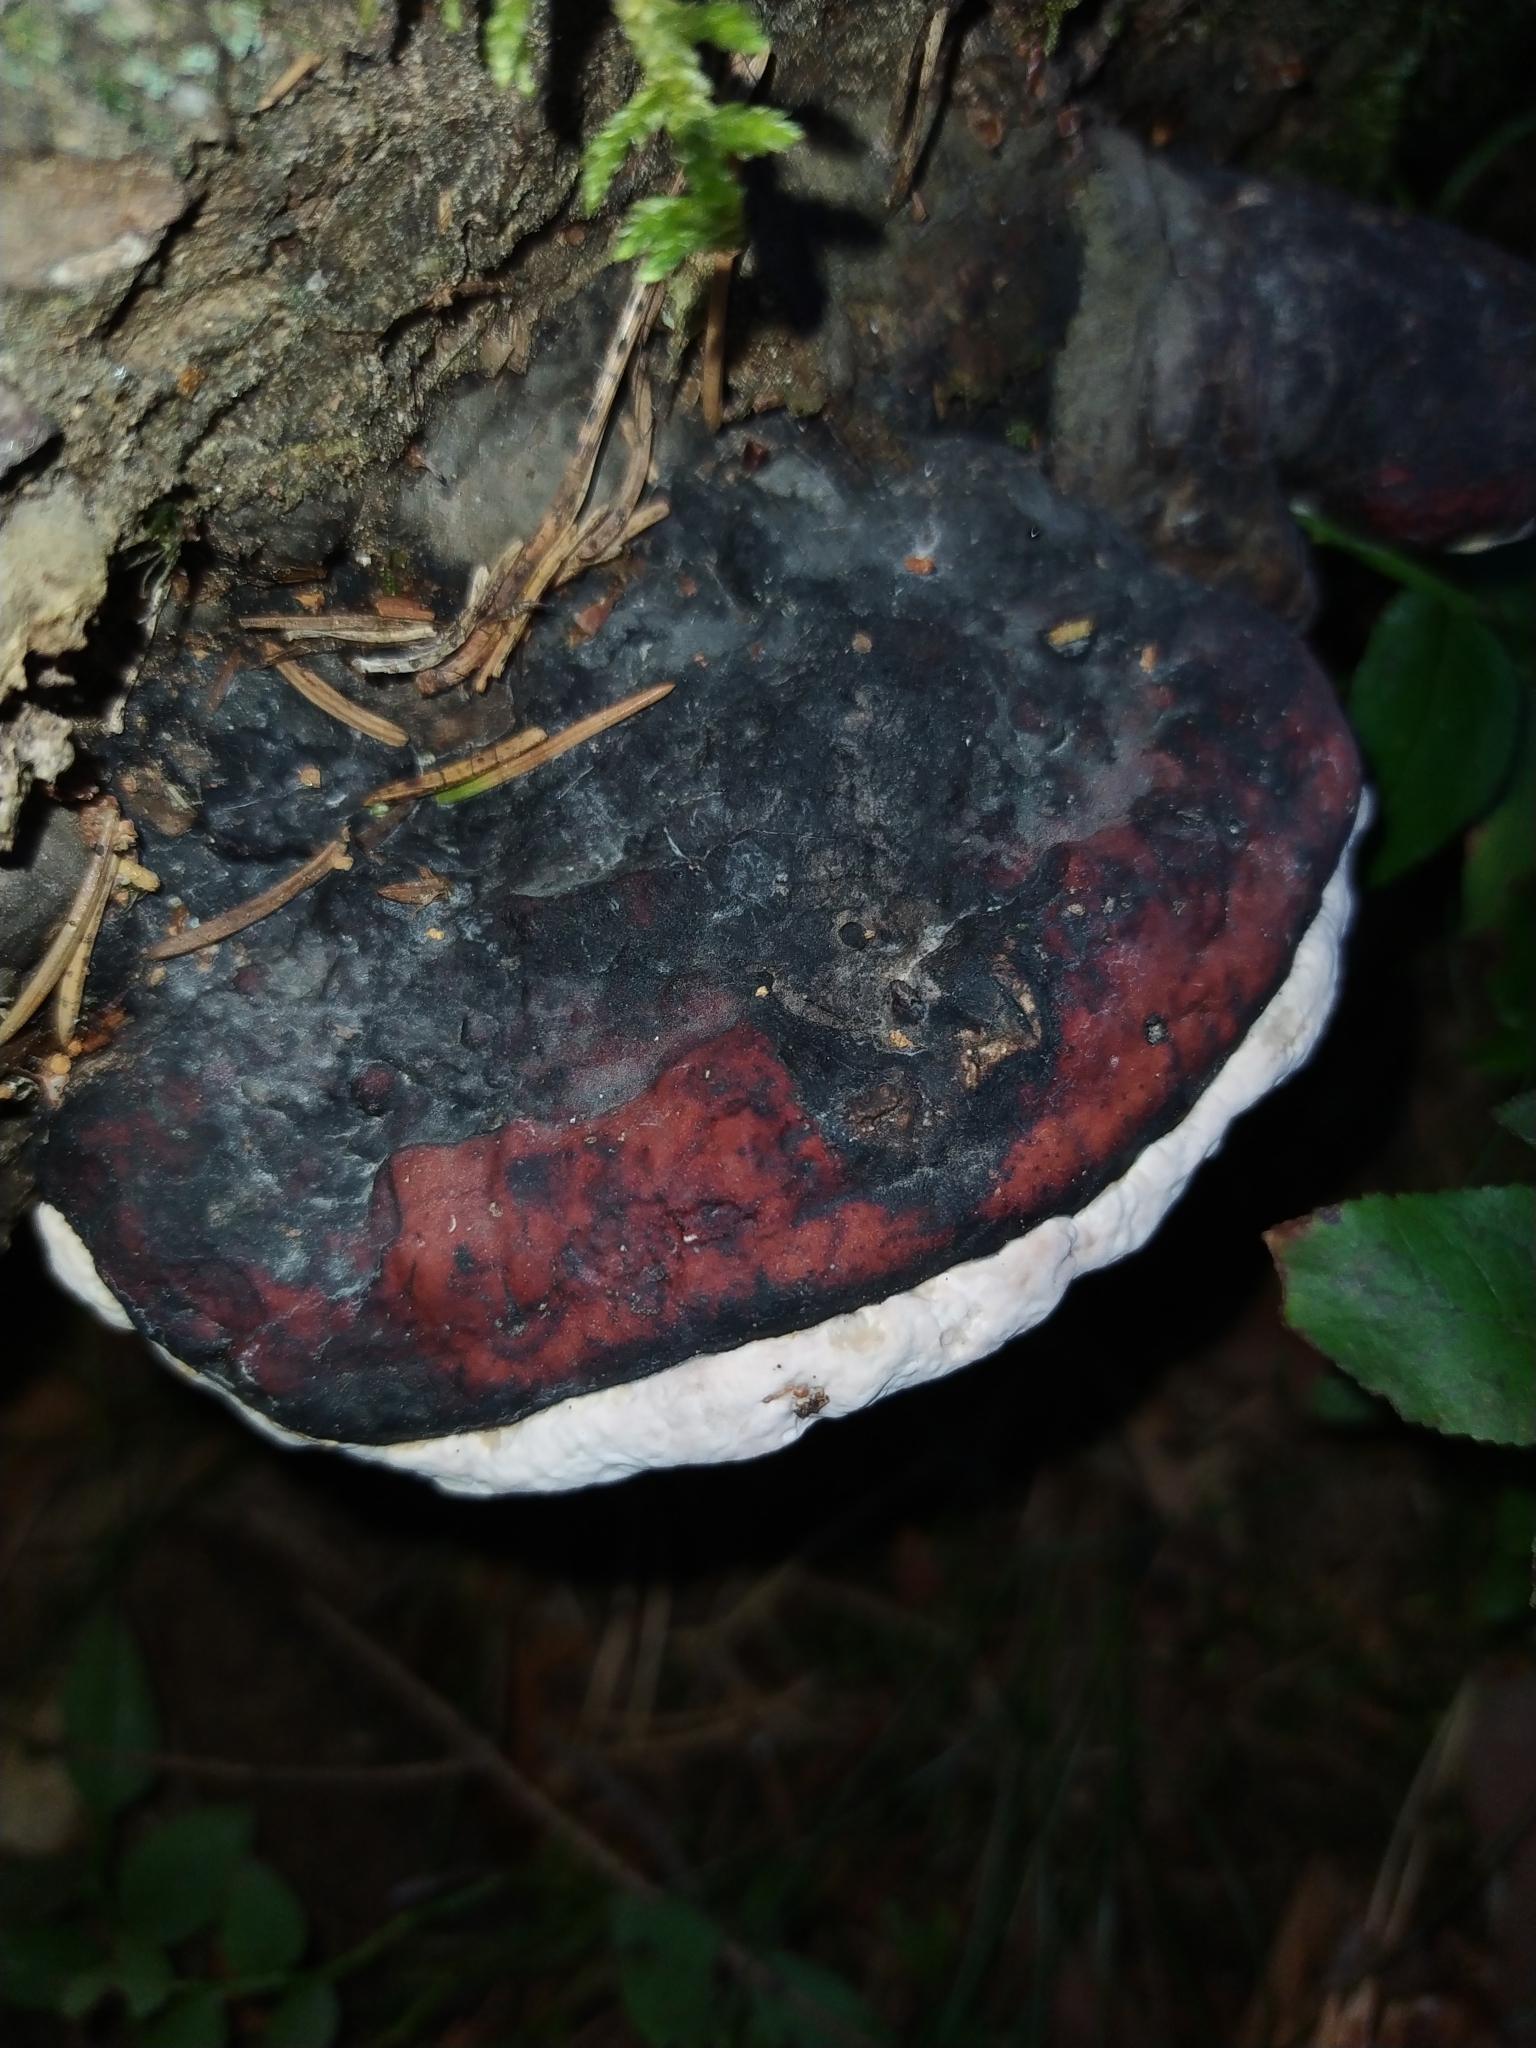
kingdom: Fungi
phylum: Basidiomycota
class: Agaricomycetes
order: Polyporales
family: Fomitopsidaceae
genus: Fomitopsis
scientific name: Fomitopsis pinicola
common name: Red-belted bracket
